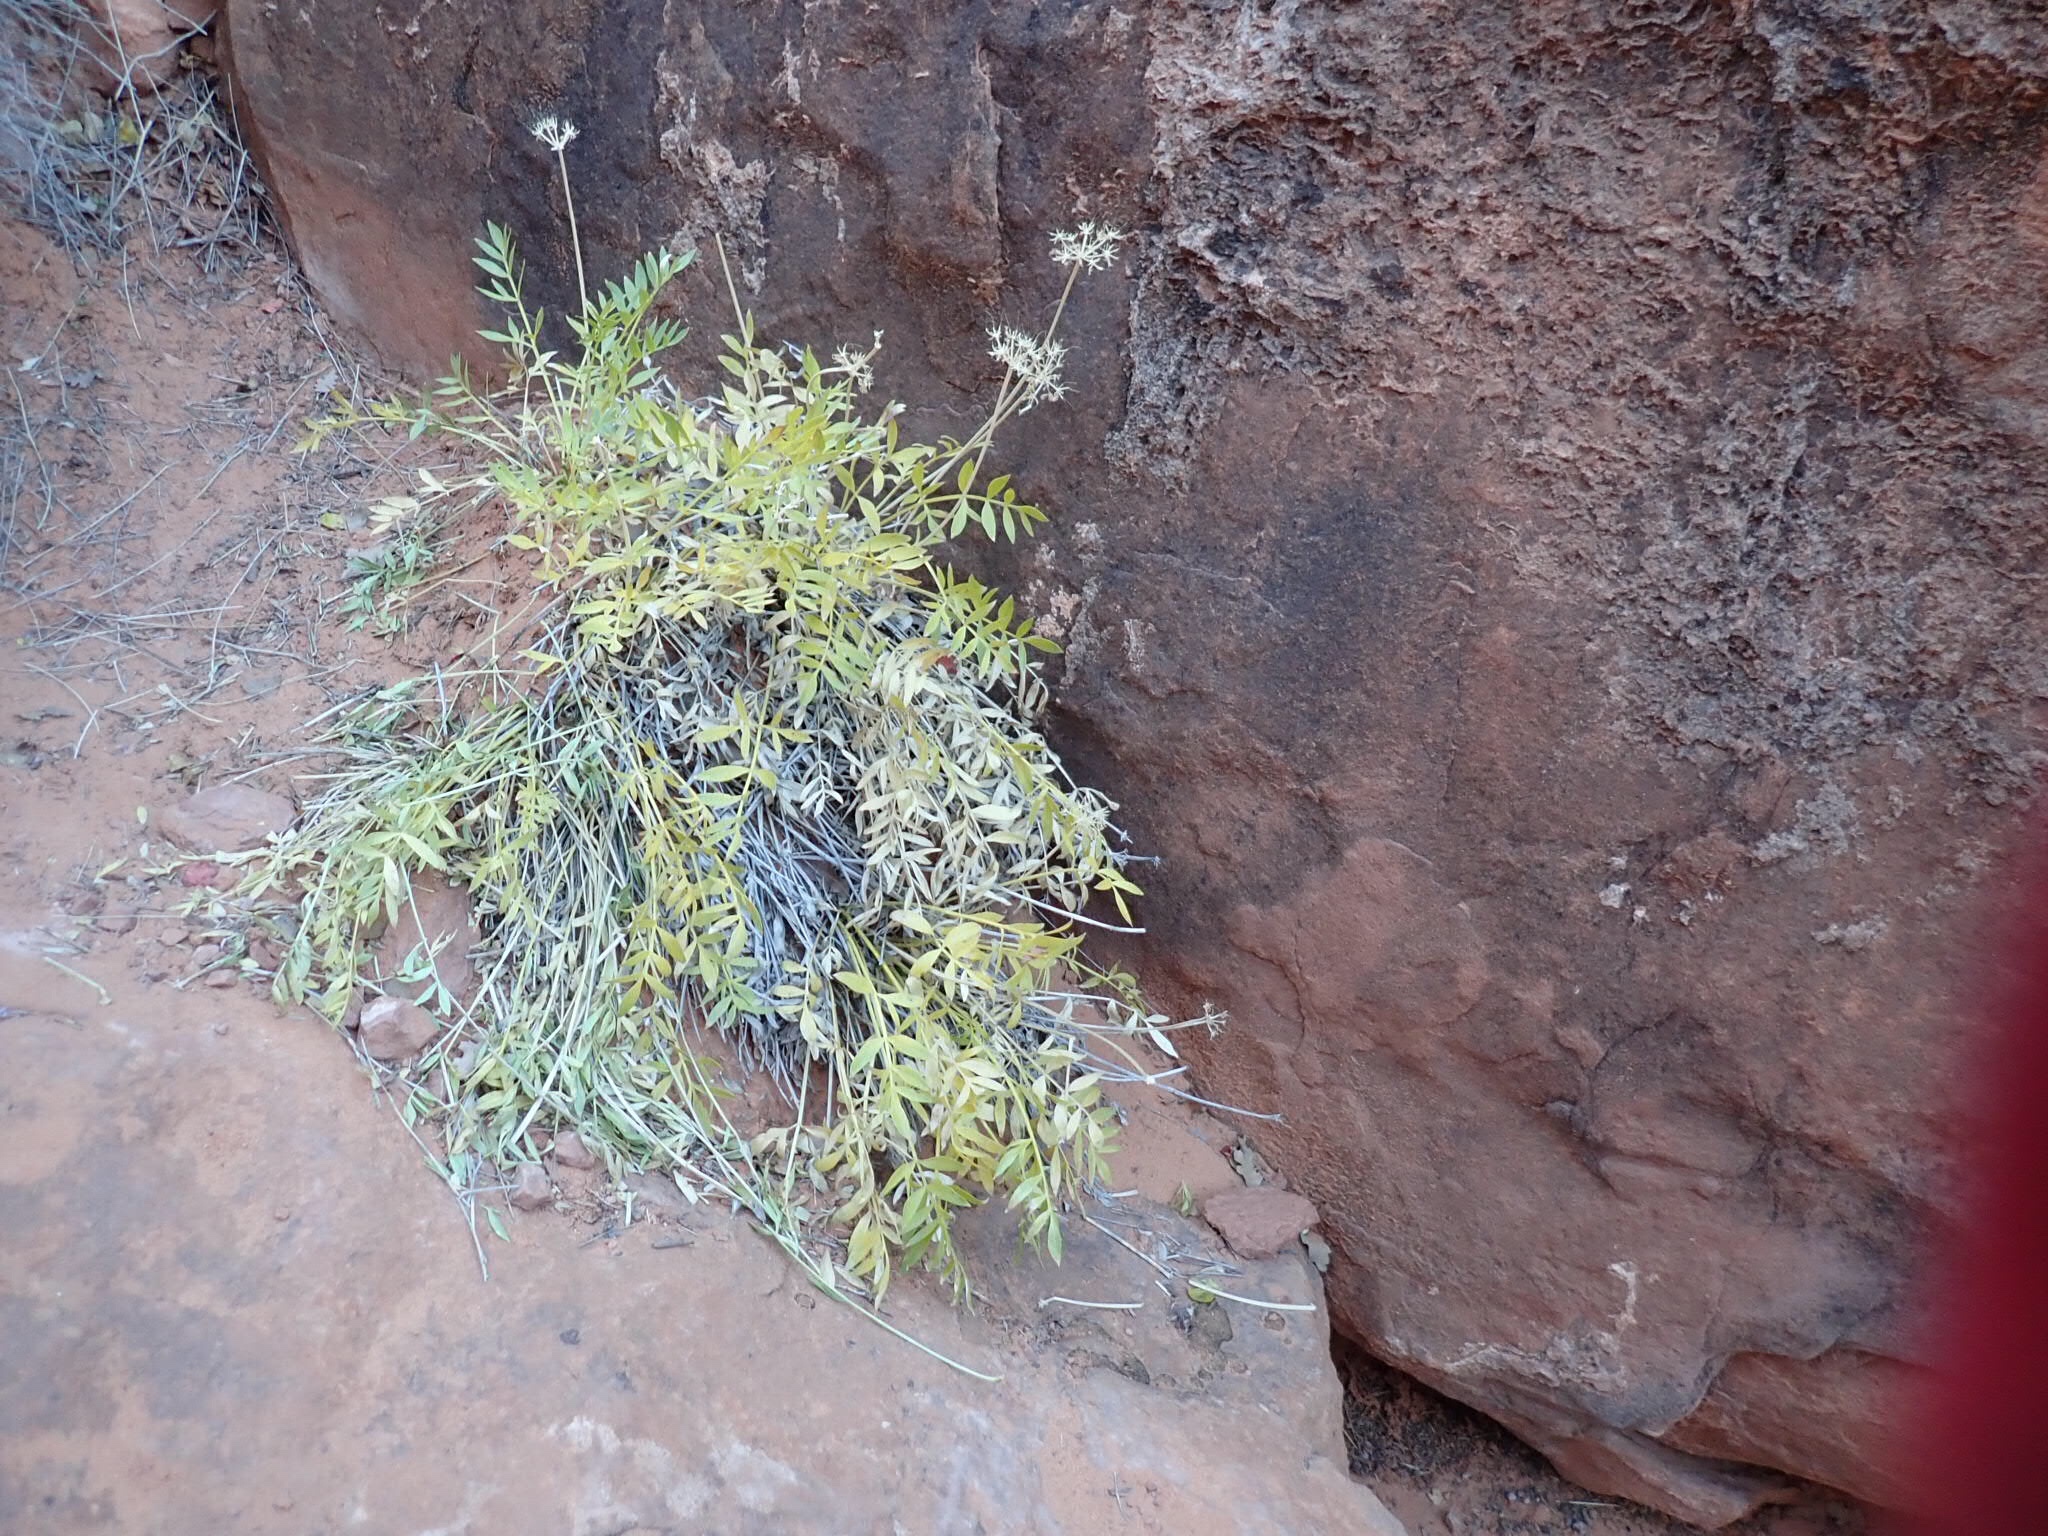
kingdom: Plantae
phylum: Tracheophyta
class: Magnoliopsida
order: Apiales
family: Apiaceae
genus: Lomatium
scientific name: Lomatium latilobum
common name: Canyonlands lomatium
